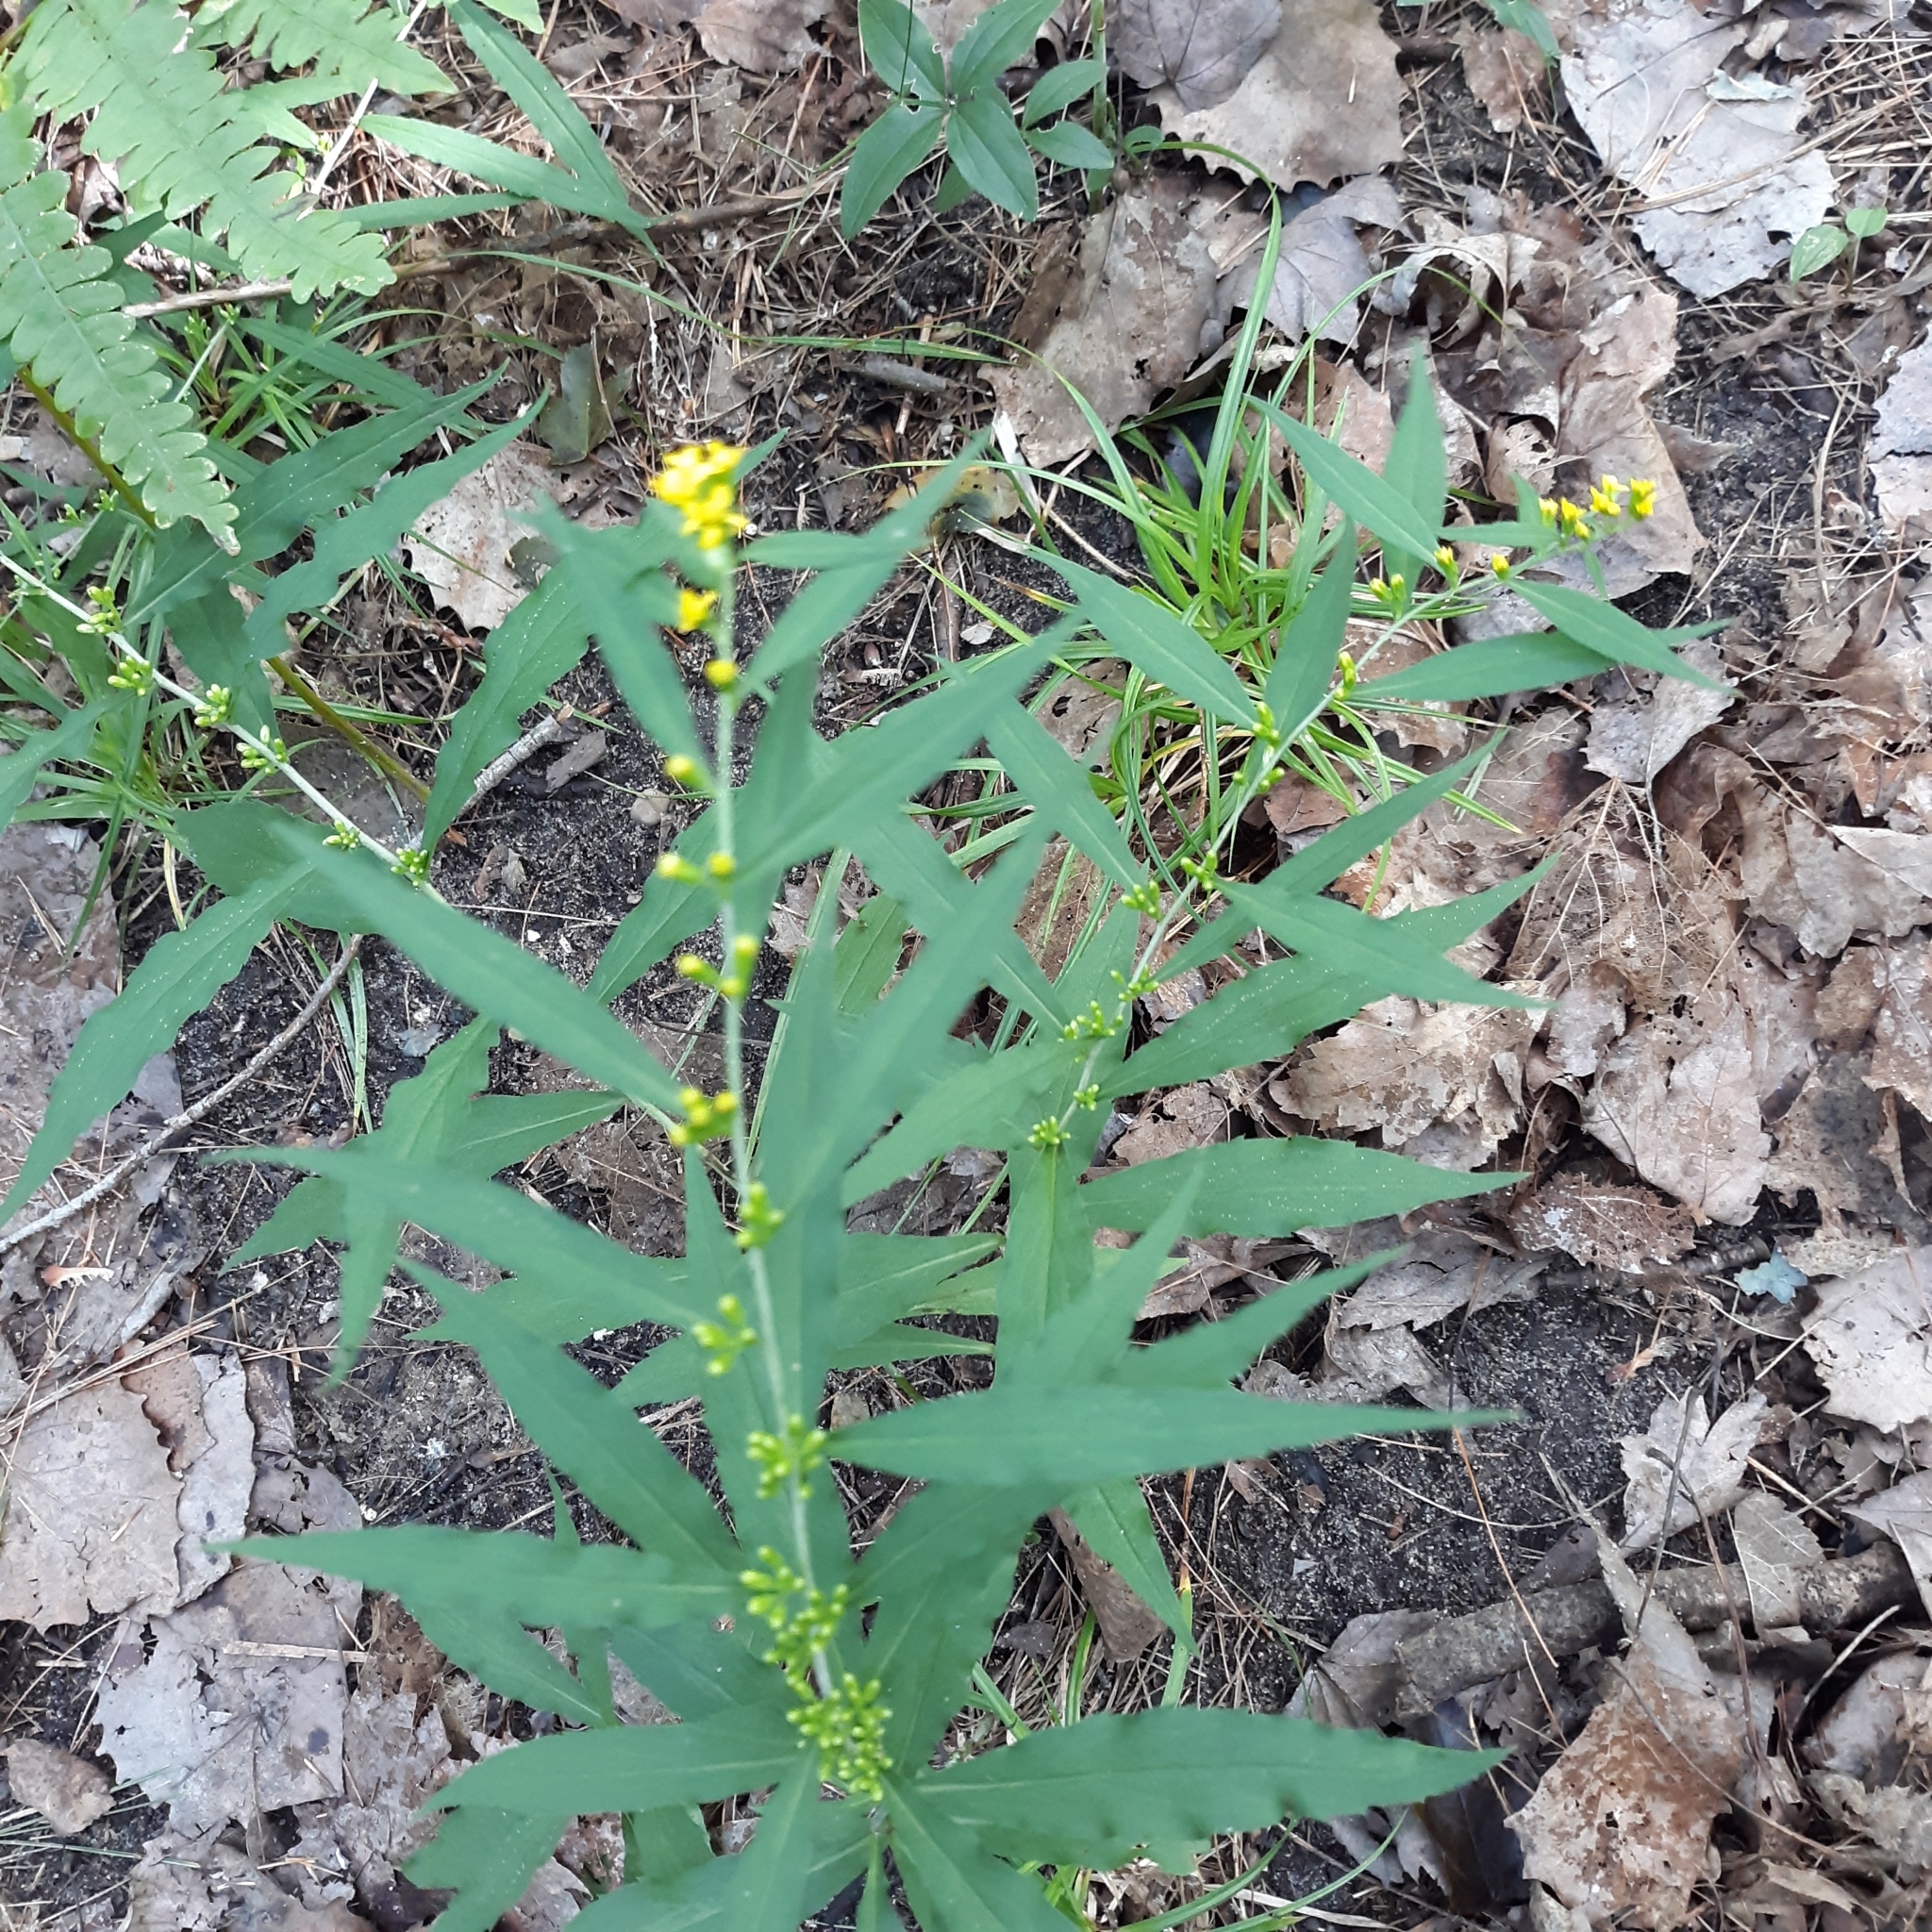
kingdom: Plantae
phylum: Tracheophyta
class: Magnoliopsida
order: Asterales
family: Asteraceae
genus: Solidago
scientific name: Solidago caesia
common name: Woodland goldenrod
